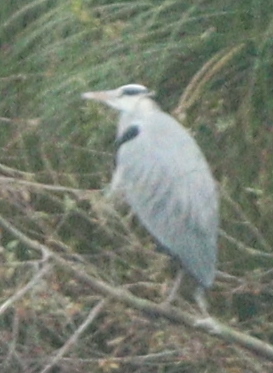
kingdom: Animalia
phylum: Chordata
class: Aves
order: Pelecaniformes
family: Ardeidae
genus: Ardea
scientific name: Ardea cinerea
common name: Grey heron
